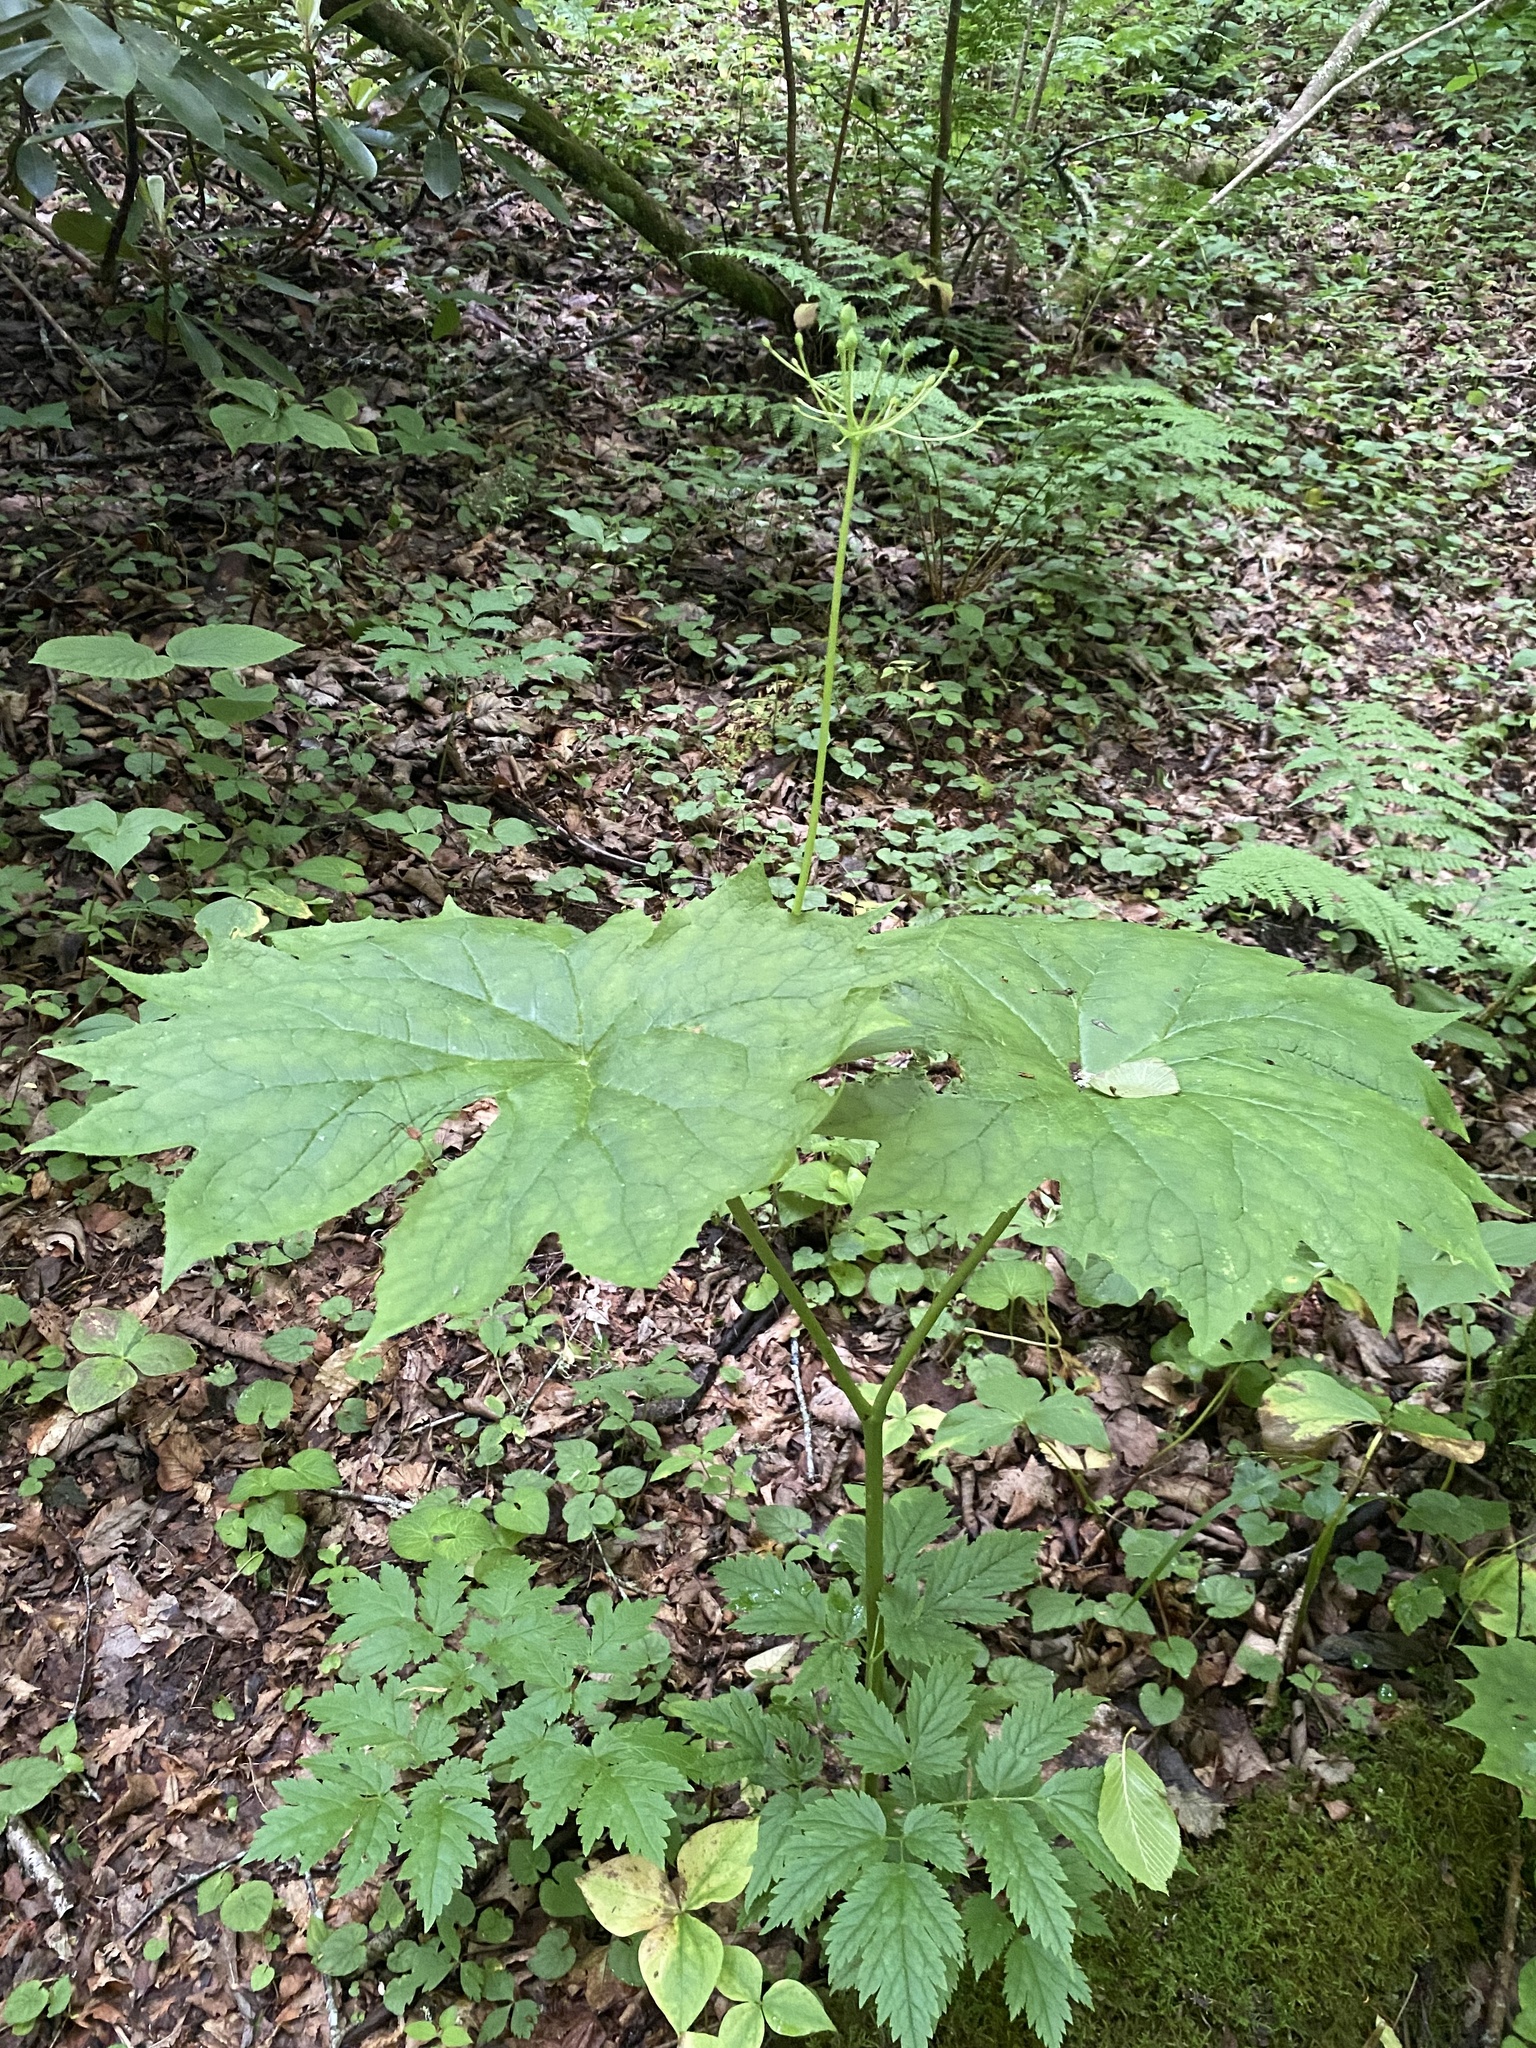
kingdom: Plantae
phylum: Tracheophyta
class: Magnoliopsida
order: Ranunculales
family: Berberidaceae
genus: Diphylleia
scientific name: Diphylleia cymosa
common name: Umbrella-leaf
